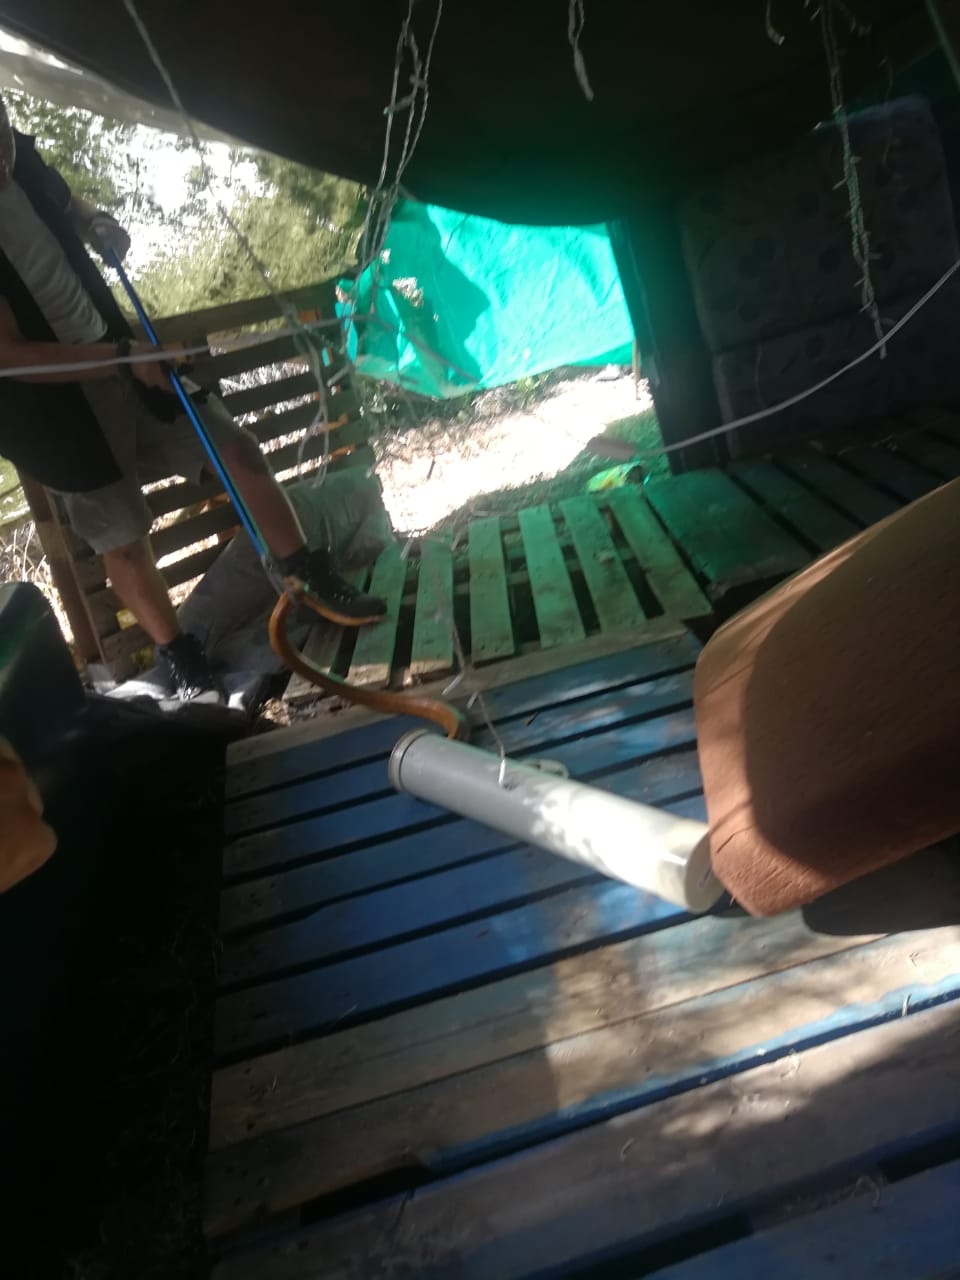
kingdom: Animalia
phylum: Chordata
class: Squamata
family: Elapidae
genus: Naja
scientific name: Naja nivea
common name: Cape cobra
